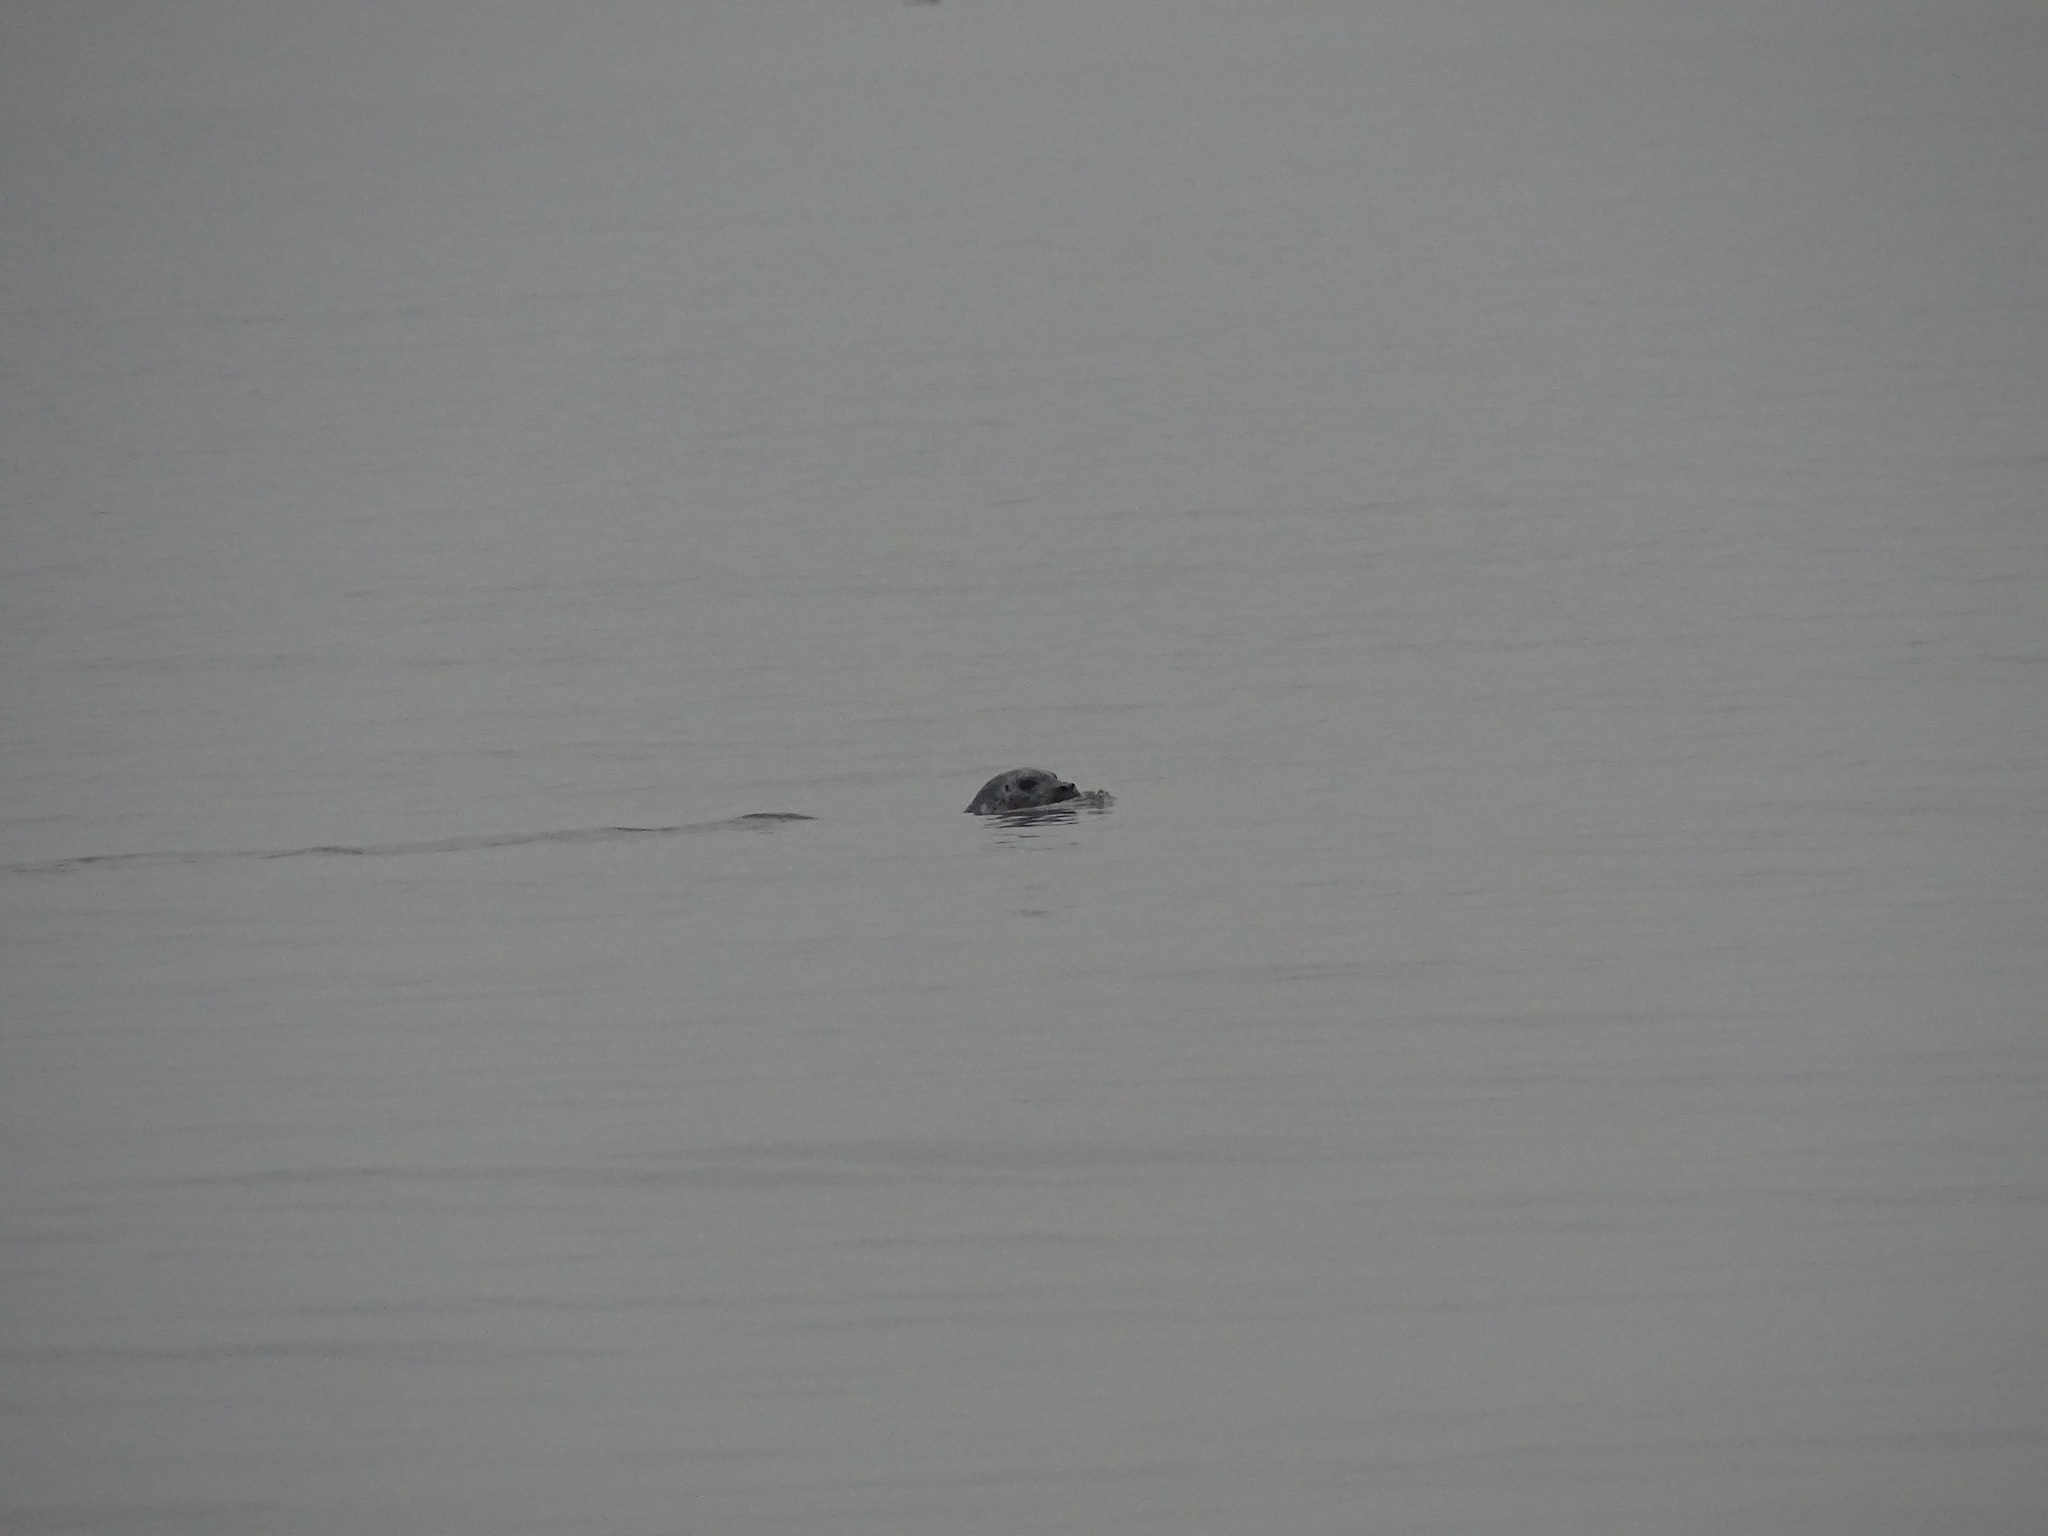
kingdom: Animalia
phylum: Chordata
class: Mammalia
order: Carnivora
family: Phocidae
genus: Phoca
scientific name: Phoca vitulina
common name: Harbor seal
